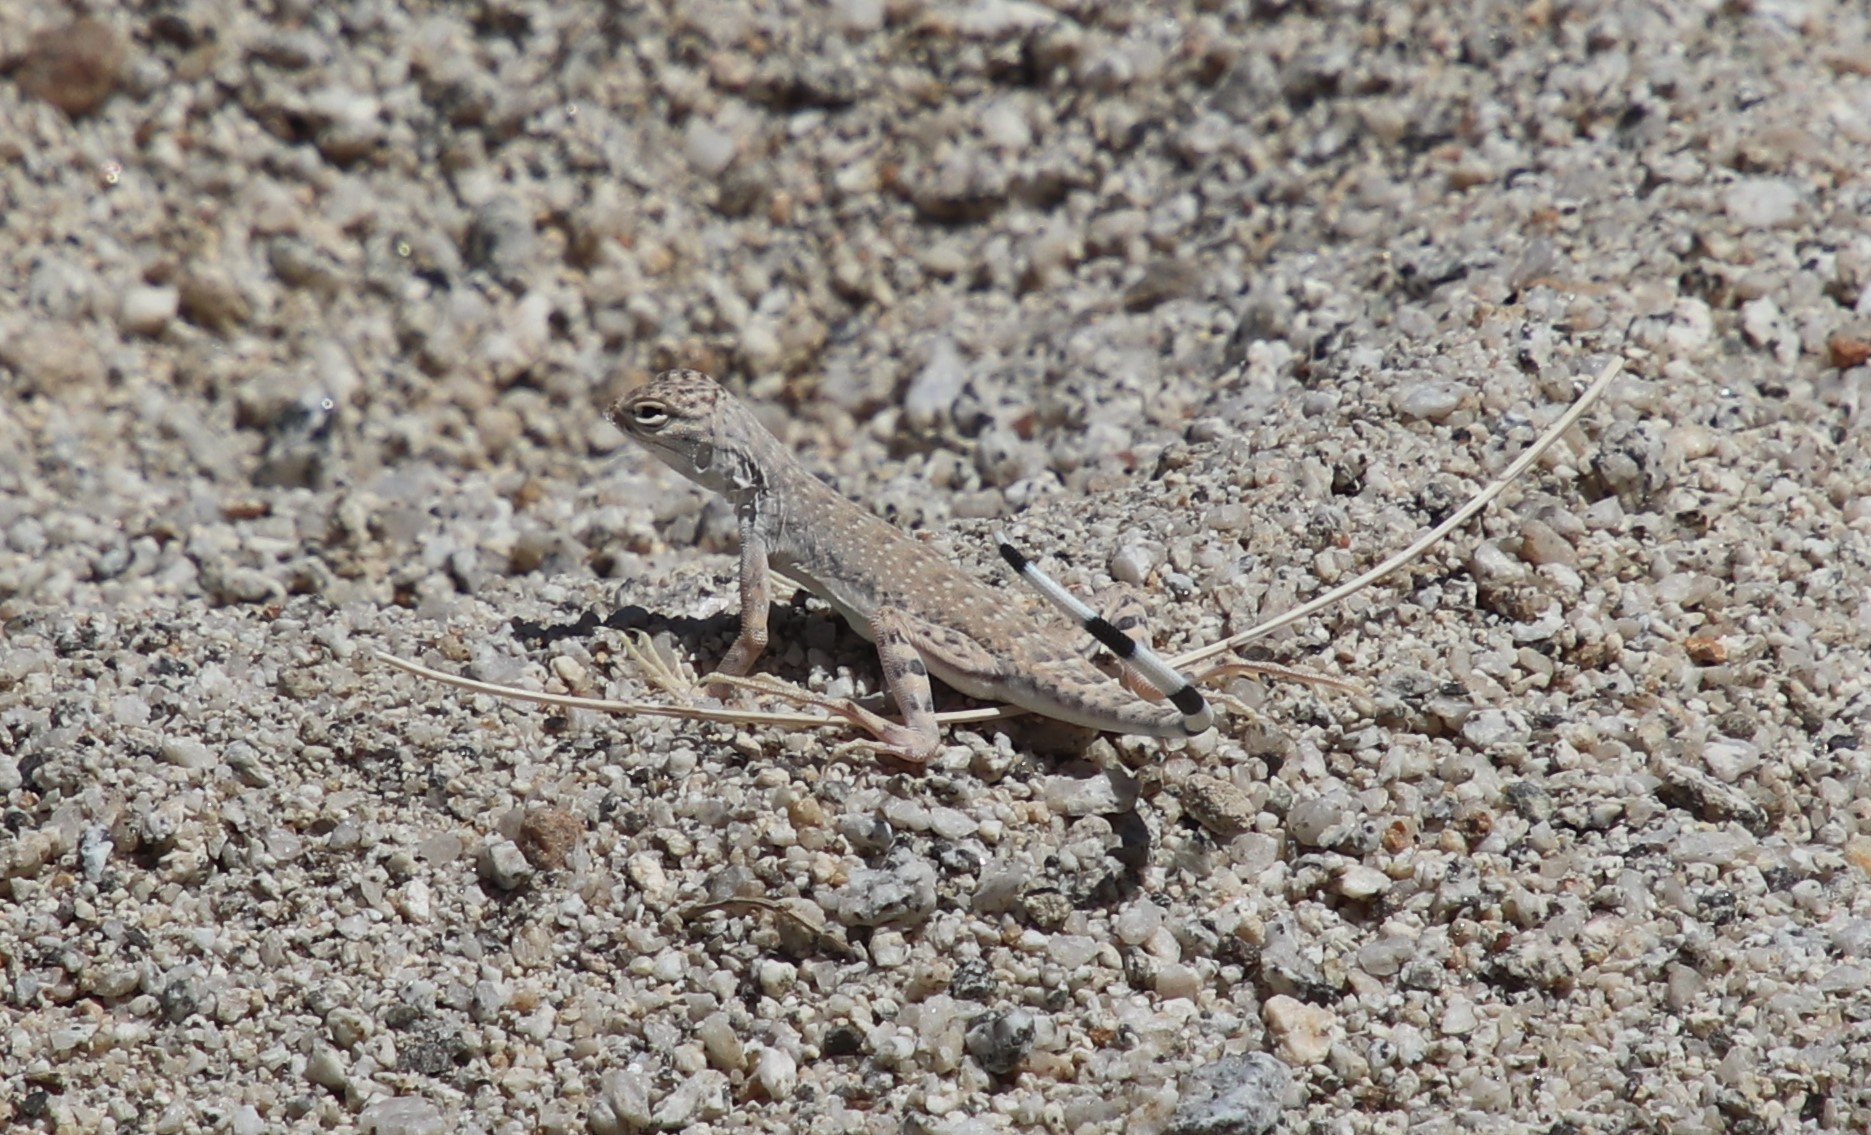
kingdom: Animalia
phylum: Chordata
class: Squamata
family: Phrynosomatidae
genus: Callisaurus
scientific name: Callisaurus draconoides
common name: Zebra-tailed lizard
